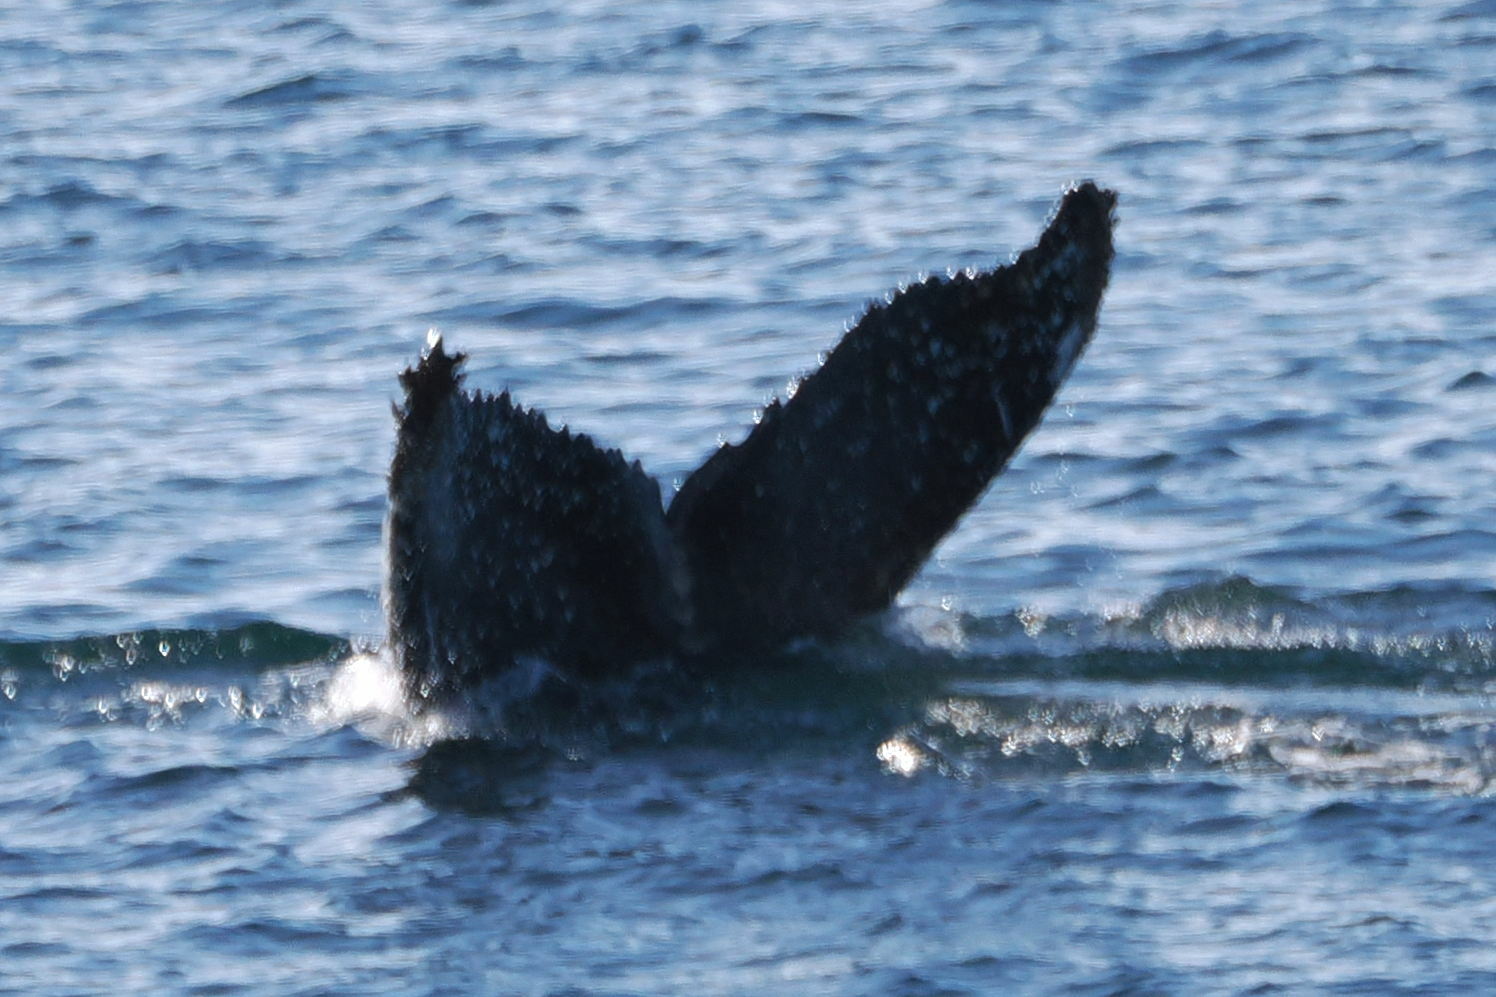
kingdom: Animalia
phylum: Chordata
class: Mammalia
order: Cetacea
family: Balaenopteridae
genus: Megaptera
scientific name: Megaptera novaeangliae
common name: Humpback whale
